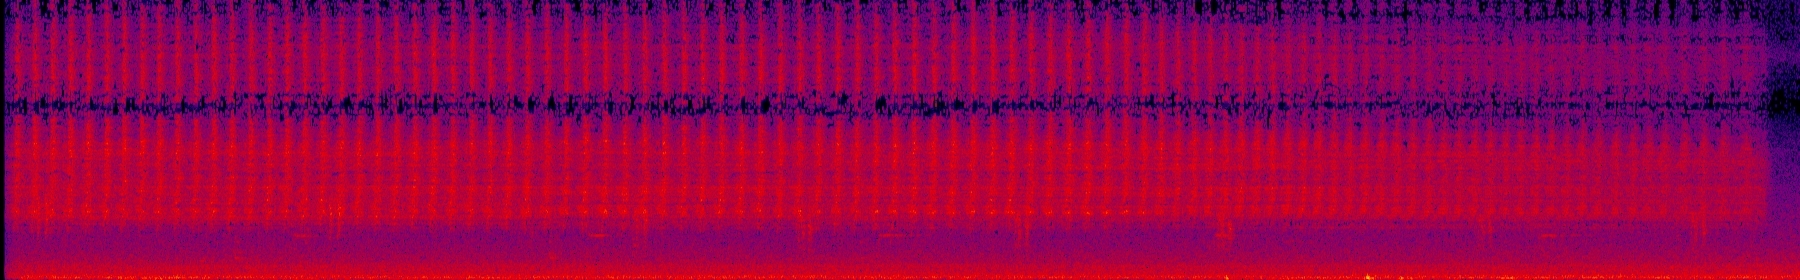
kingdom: Animalia
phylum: Arthropoda
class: Insecta
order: Hemiptera
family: Cicadidae
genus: Cryptotympana
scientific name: Cryptotympana takasagona
